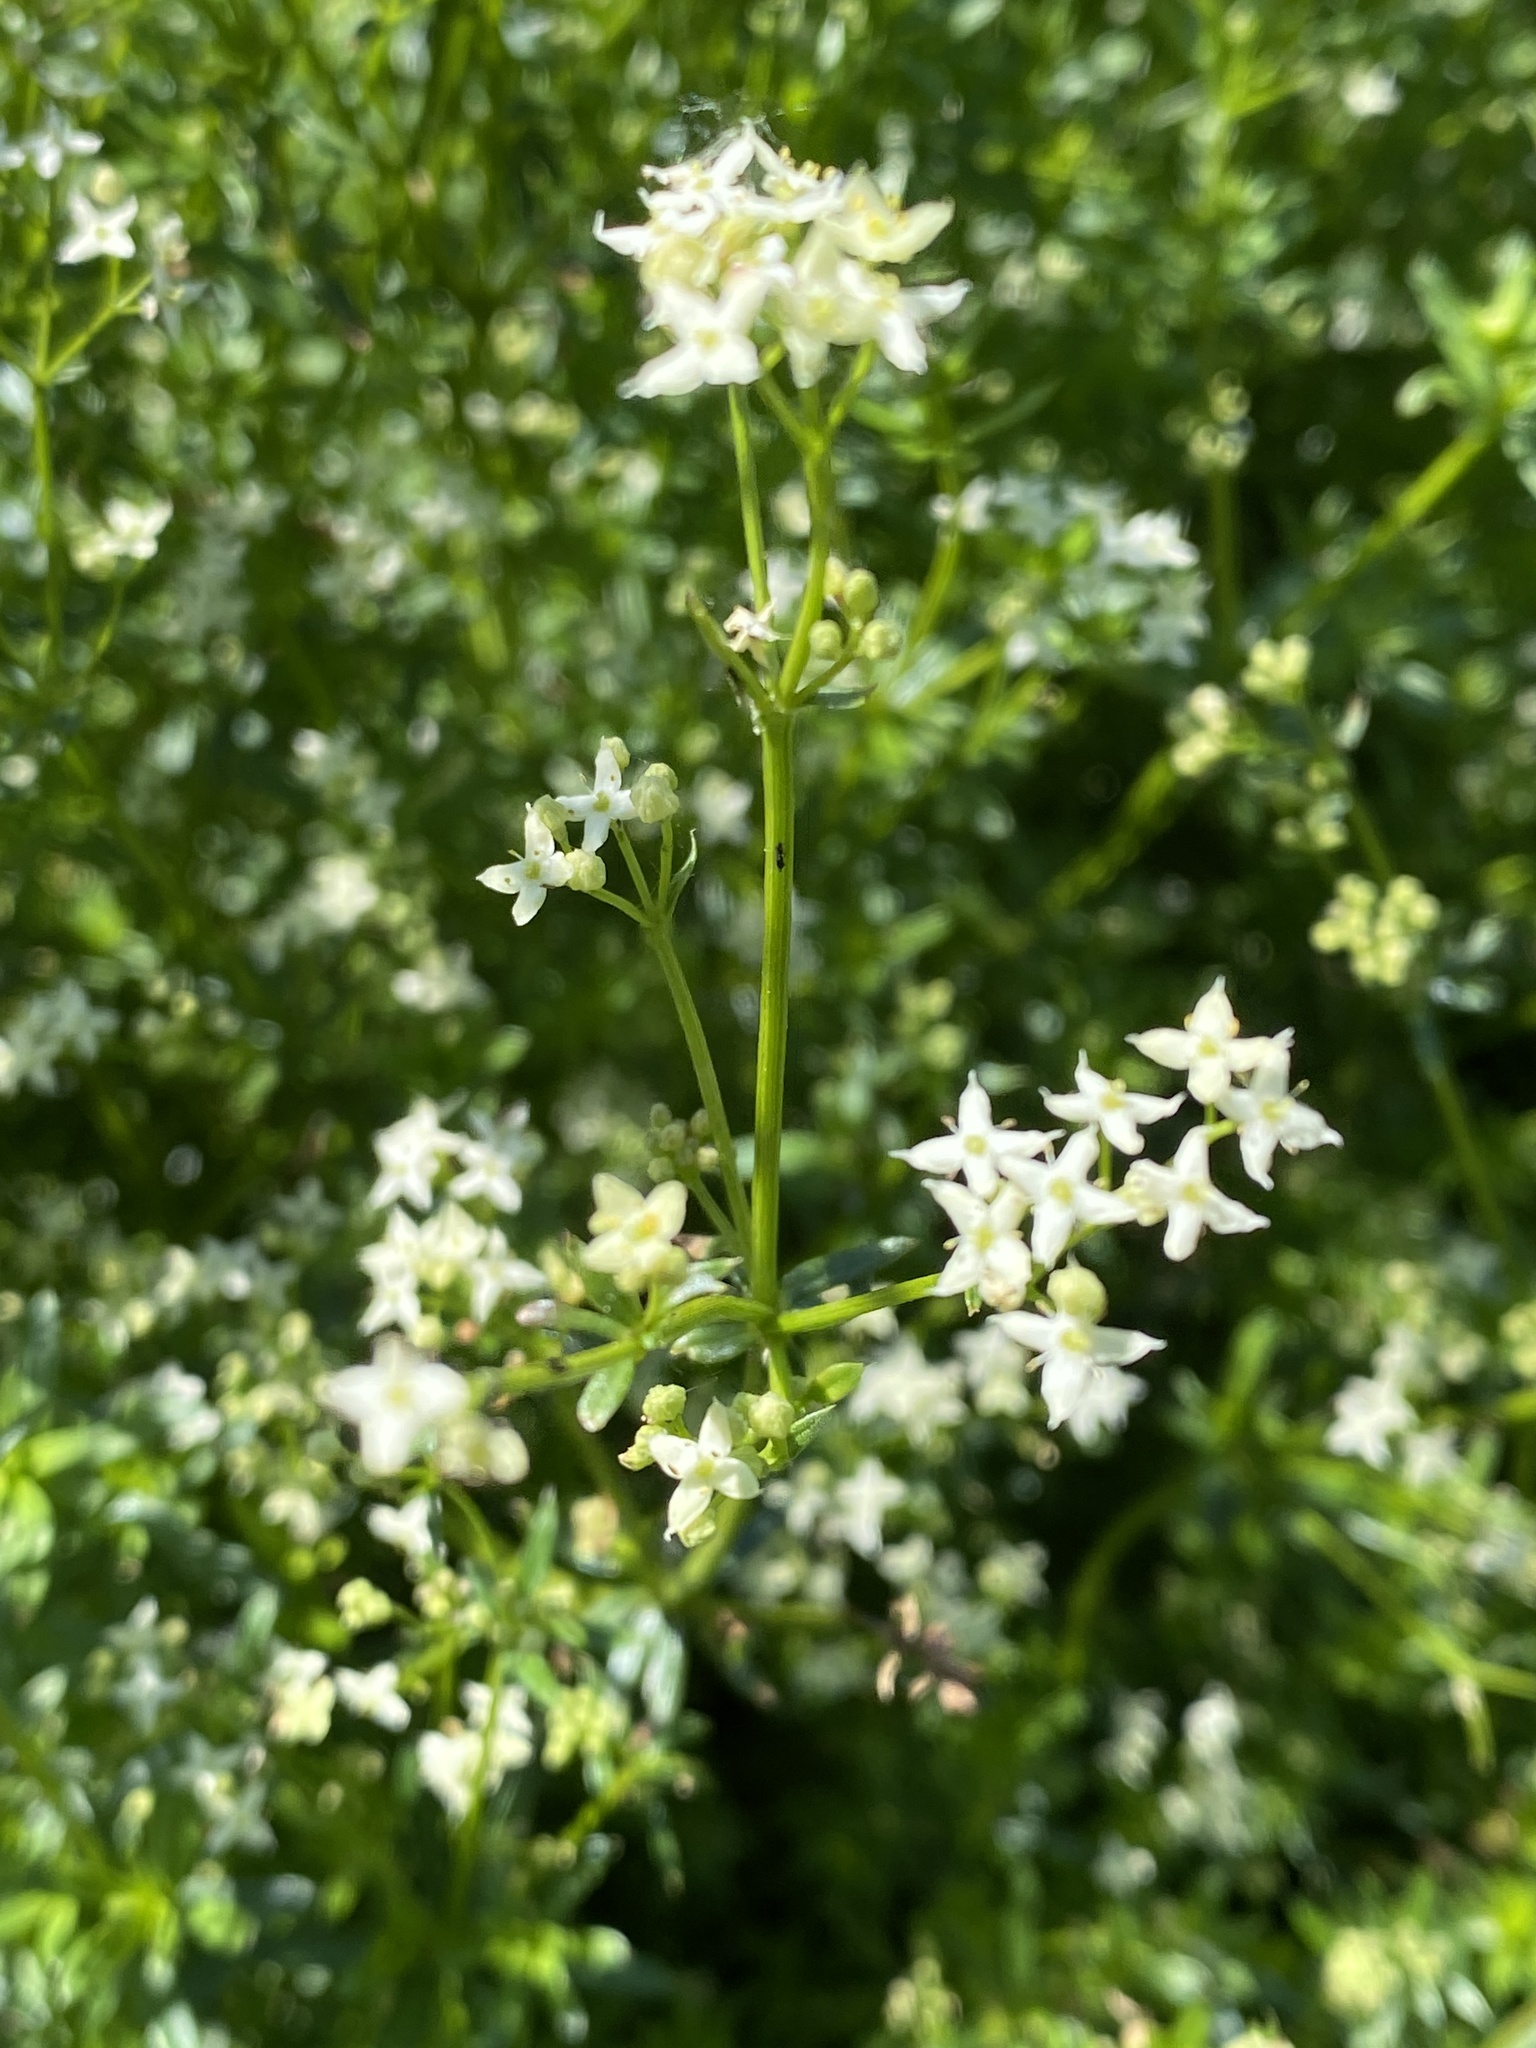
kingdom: Plantae
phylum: Tracheophyta
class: Magnoliopsida
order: Gentianales
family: Rubiaceae
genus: Galium
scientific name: Galium album
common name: White bedstraw
